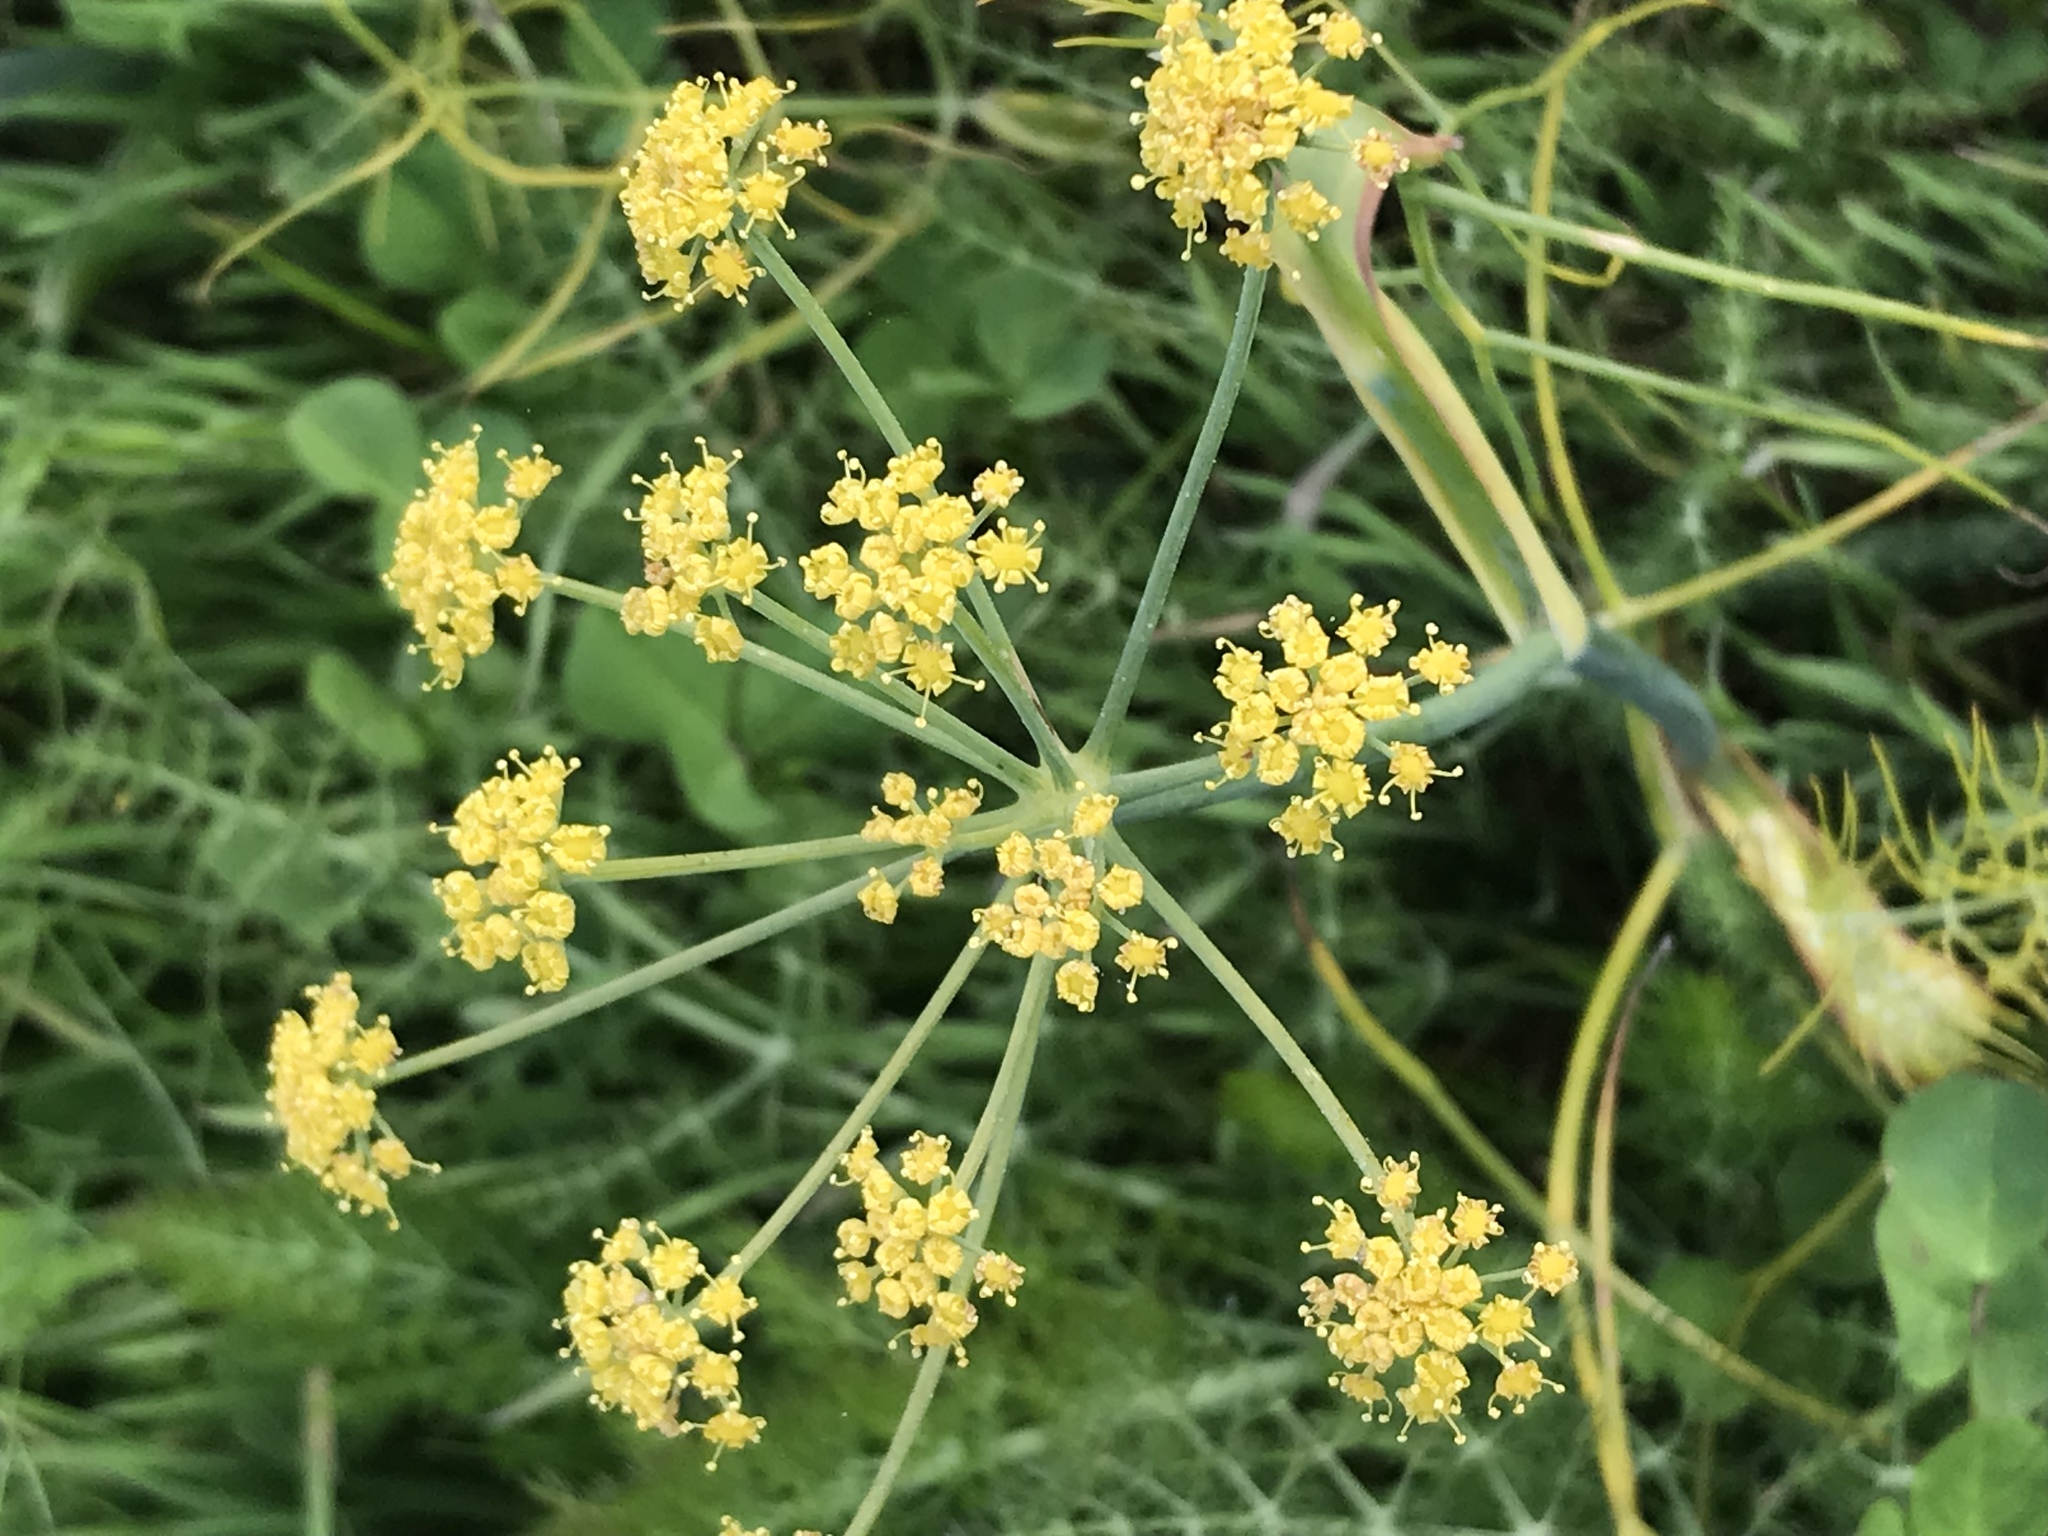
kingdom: Plantae
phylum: Tracheophyta
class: Magnoliopsida
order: Apiales
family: Apiaceae
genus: Foeniculum
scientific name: Foeniculum vulgare
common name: Fennel
